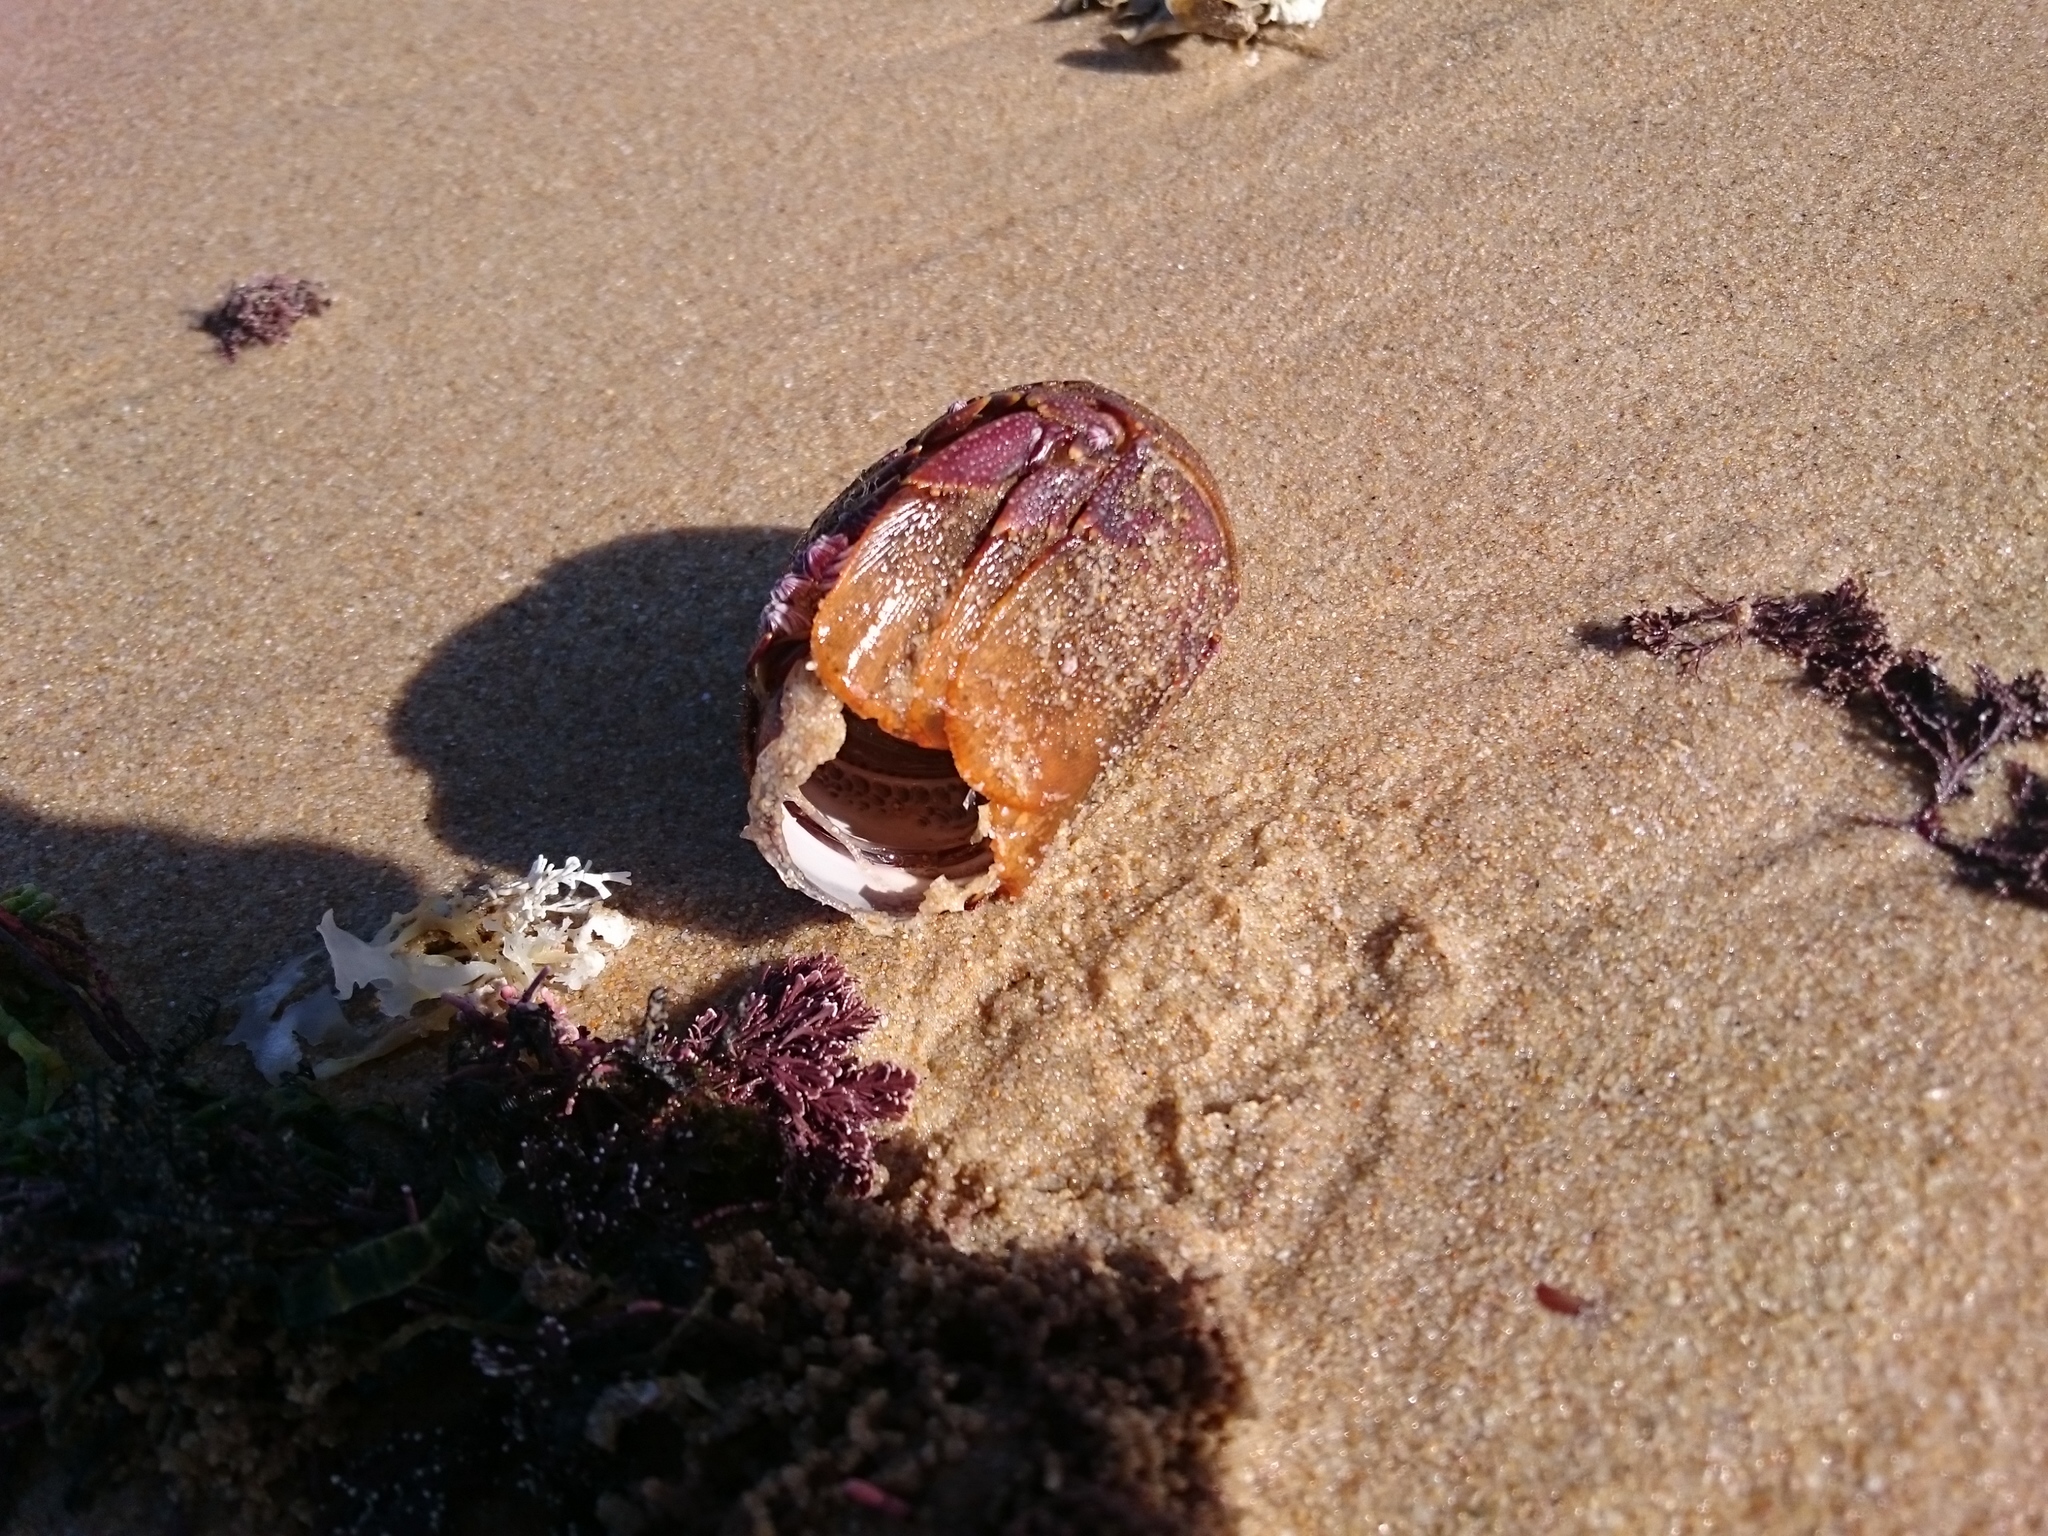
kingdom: Animalia
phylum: Arthropoda
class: Malacostraca
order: Decapoda
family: Palinuridae
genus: Jasus
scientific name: Jasus lalandii
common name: Cape rock lobster
